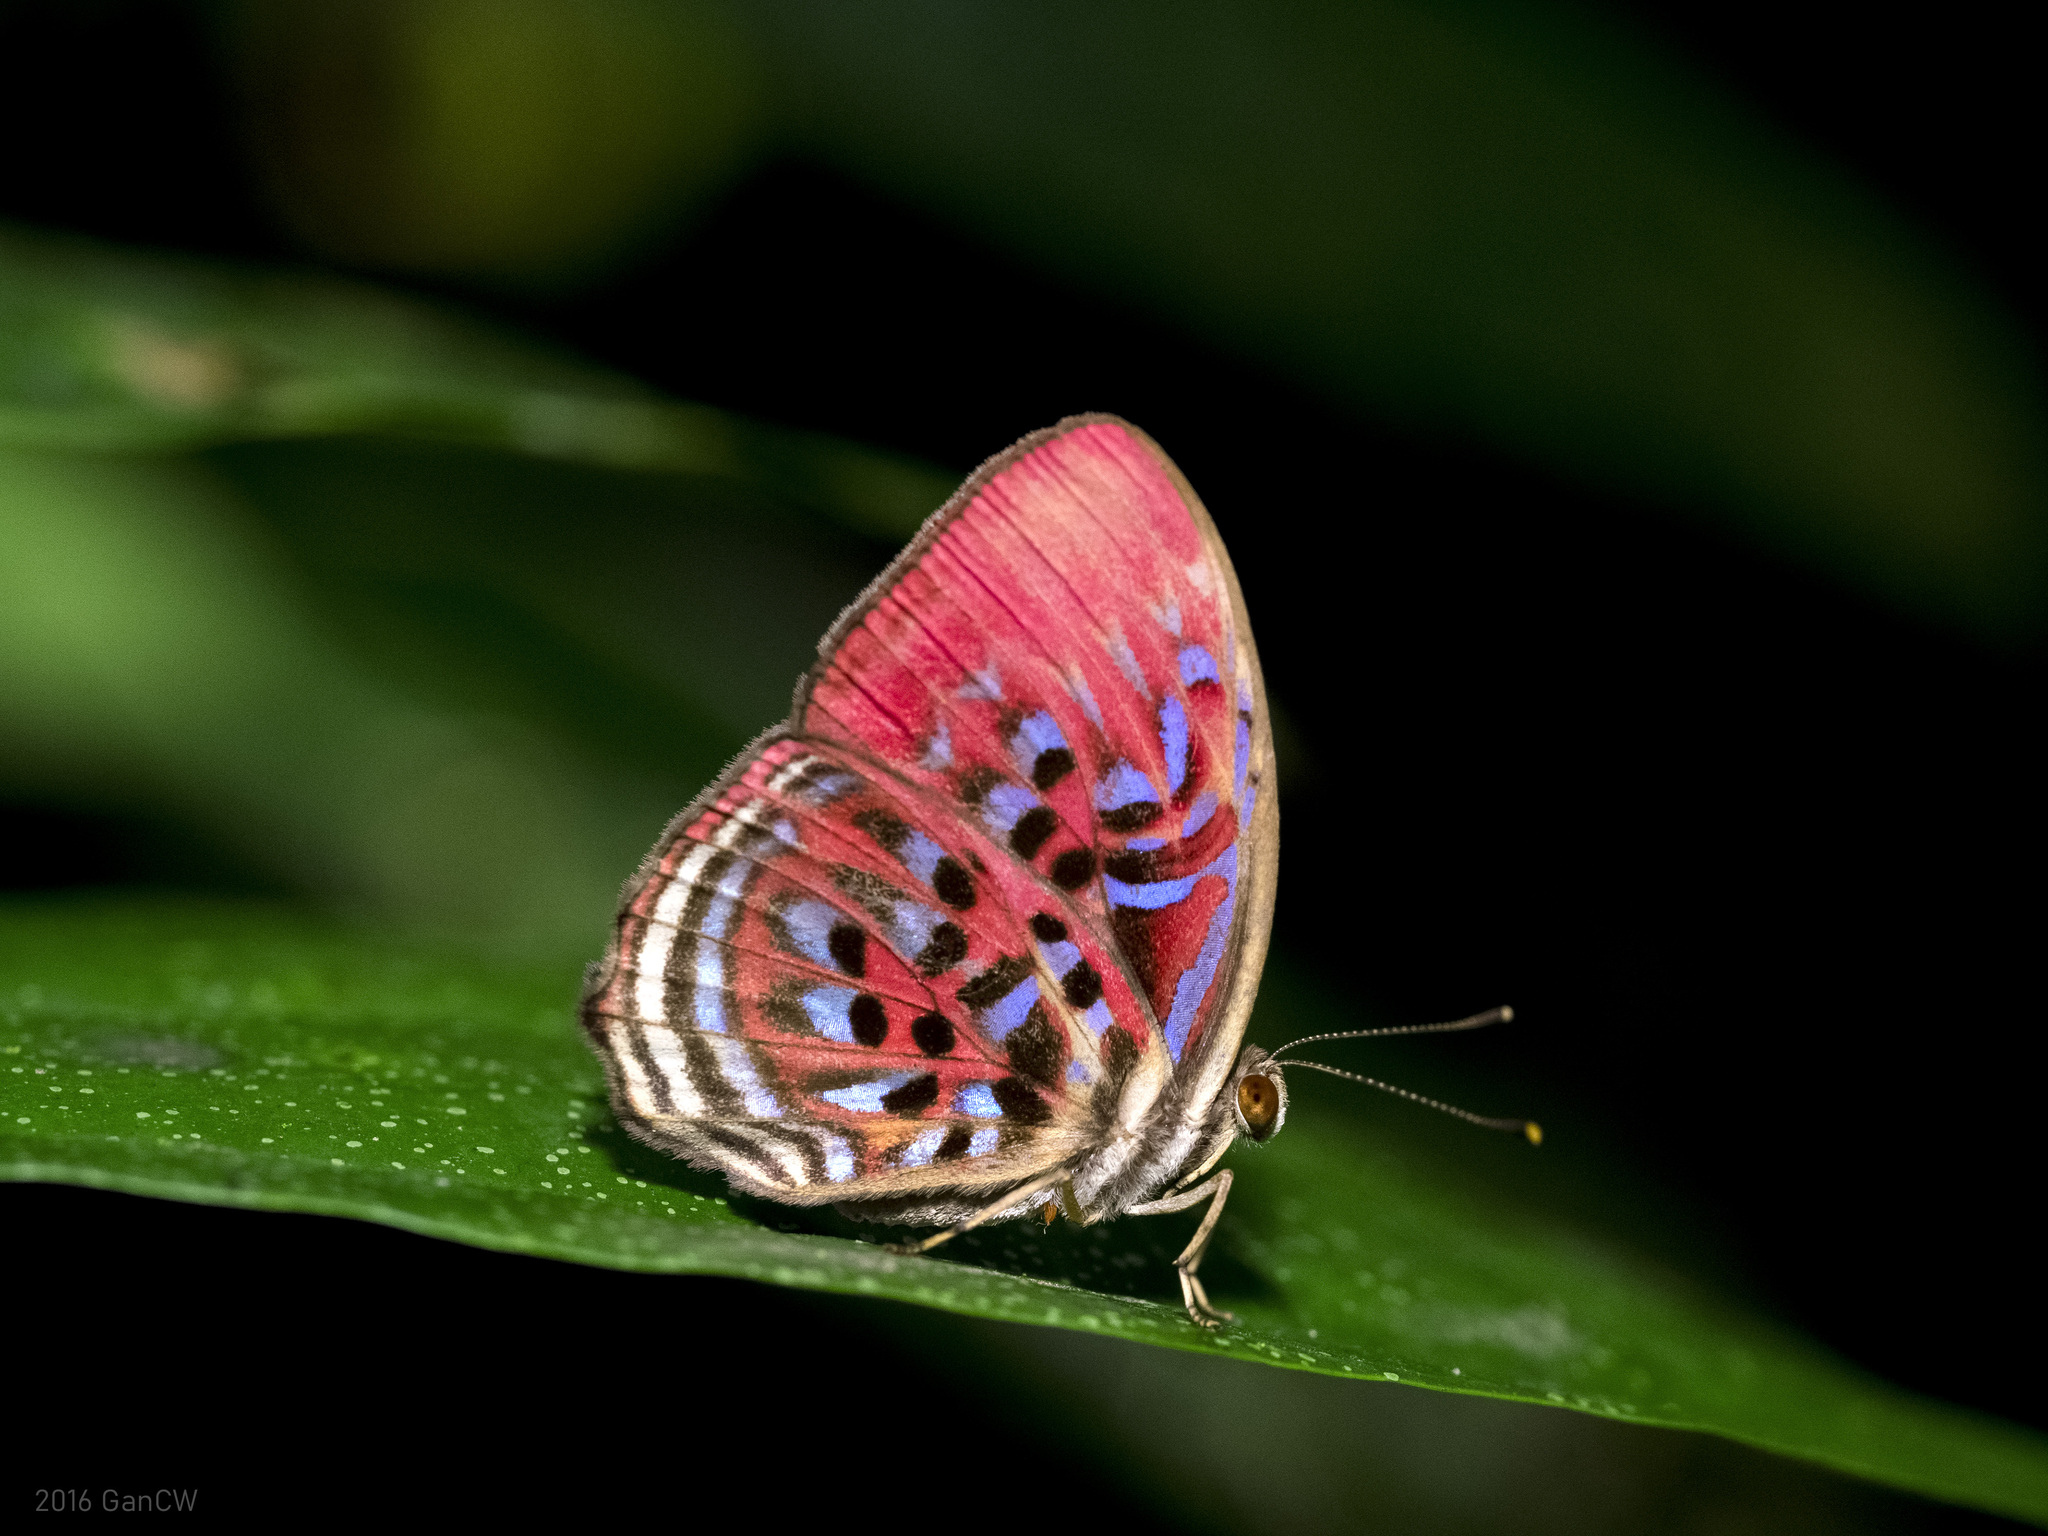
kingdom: Animalia
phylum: Arthropoda
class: Insecta
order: Lepidoptera
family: Riodinidae
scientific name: Riodinidae
